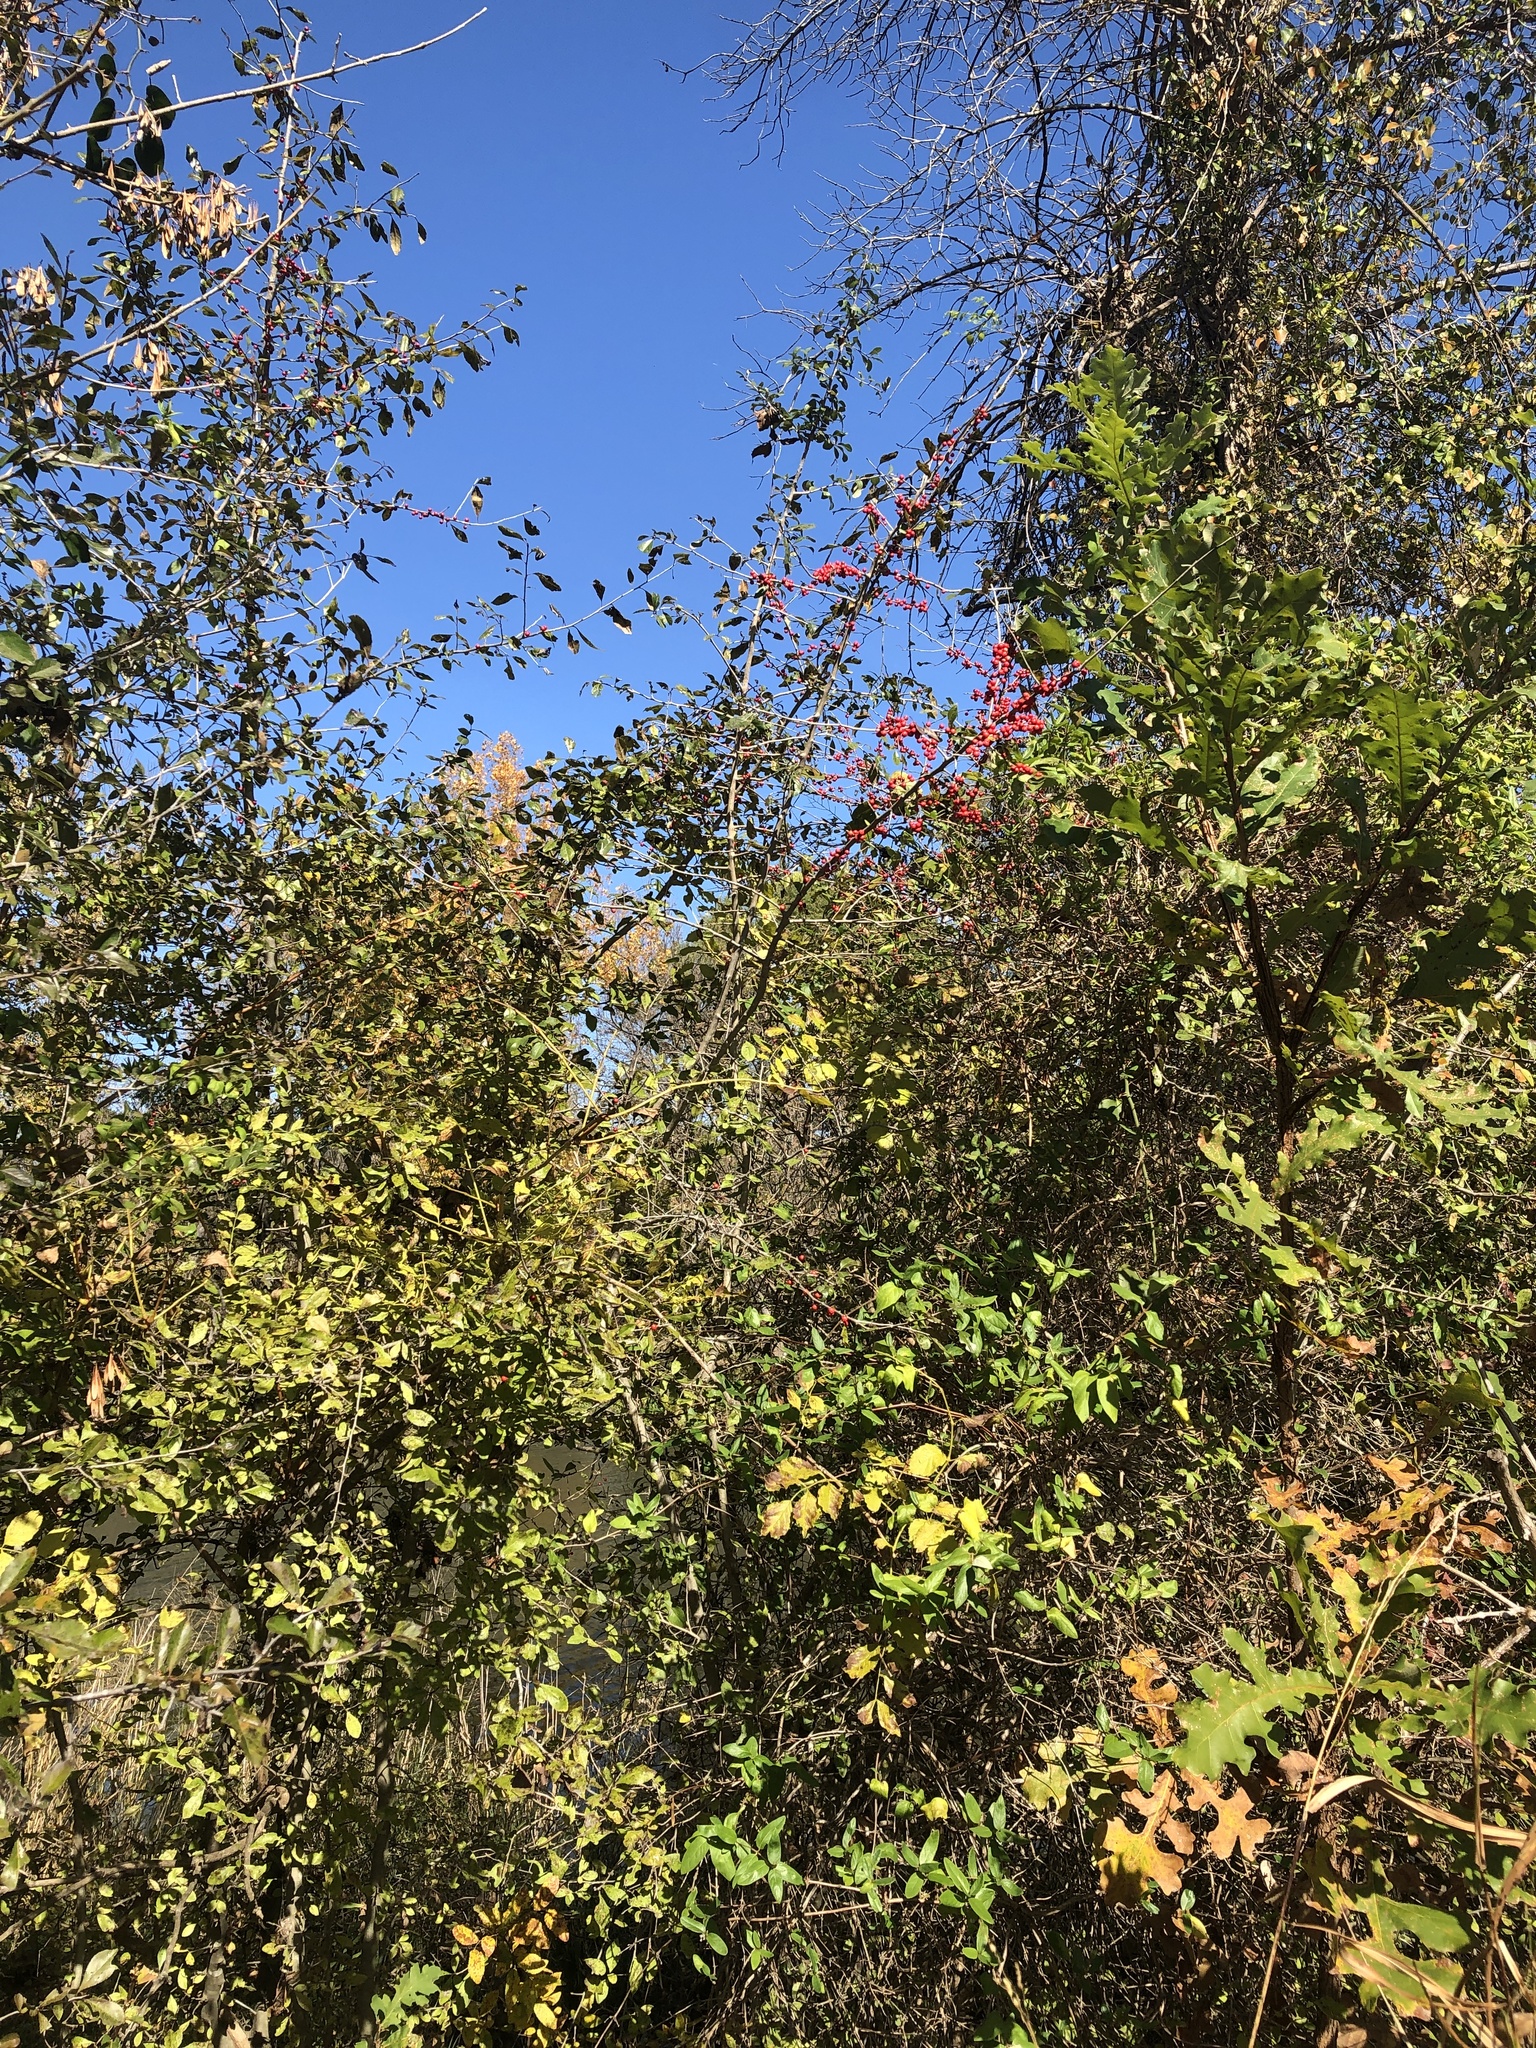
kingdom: Plantae
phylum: Tracheophyta
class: Magnoliopsida
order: Aquifoliales
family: Aquifoliaceae
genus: Ilex
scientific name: Ilex decidua
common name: Possum-haw
